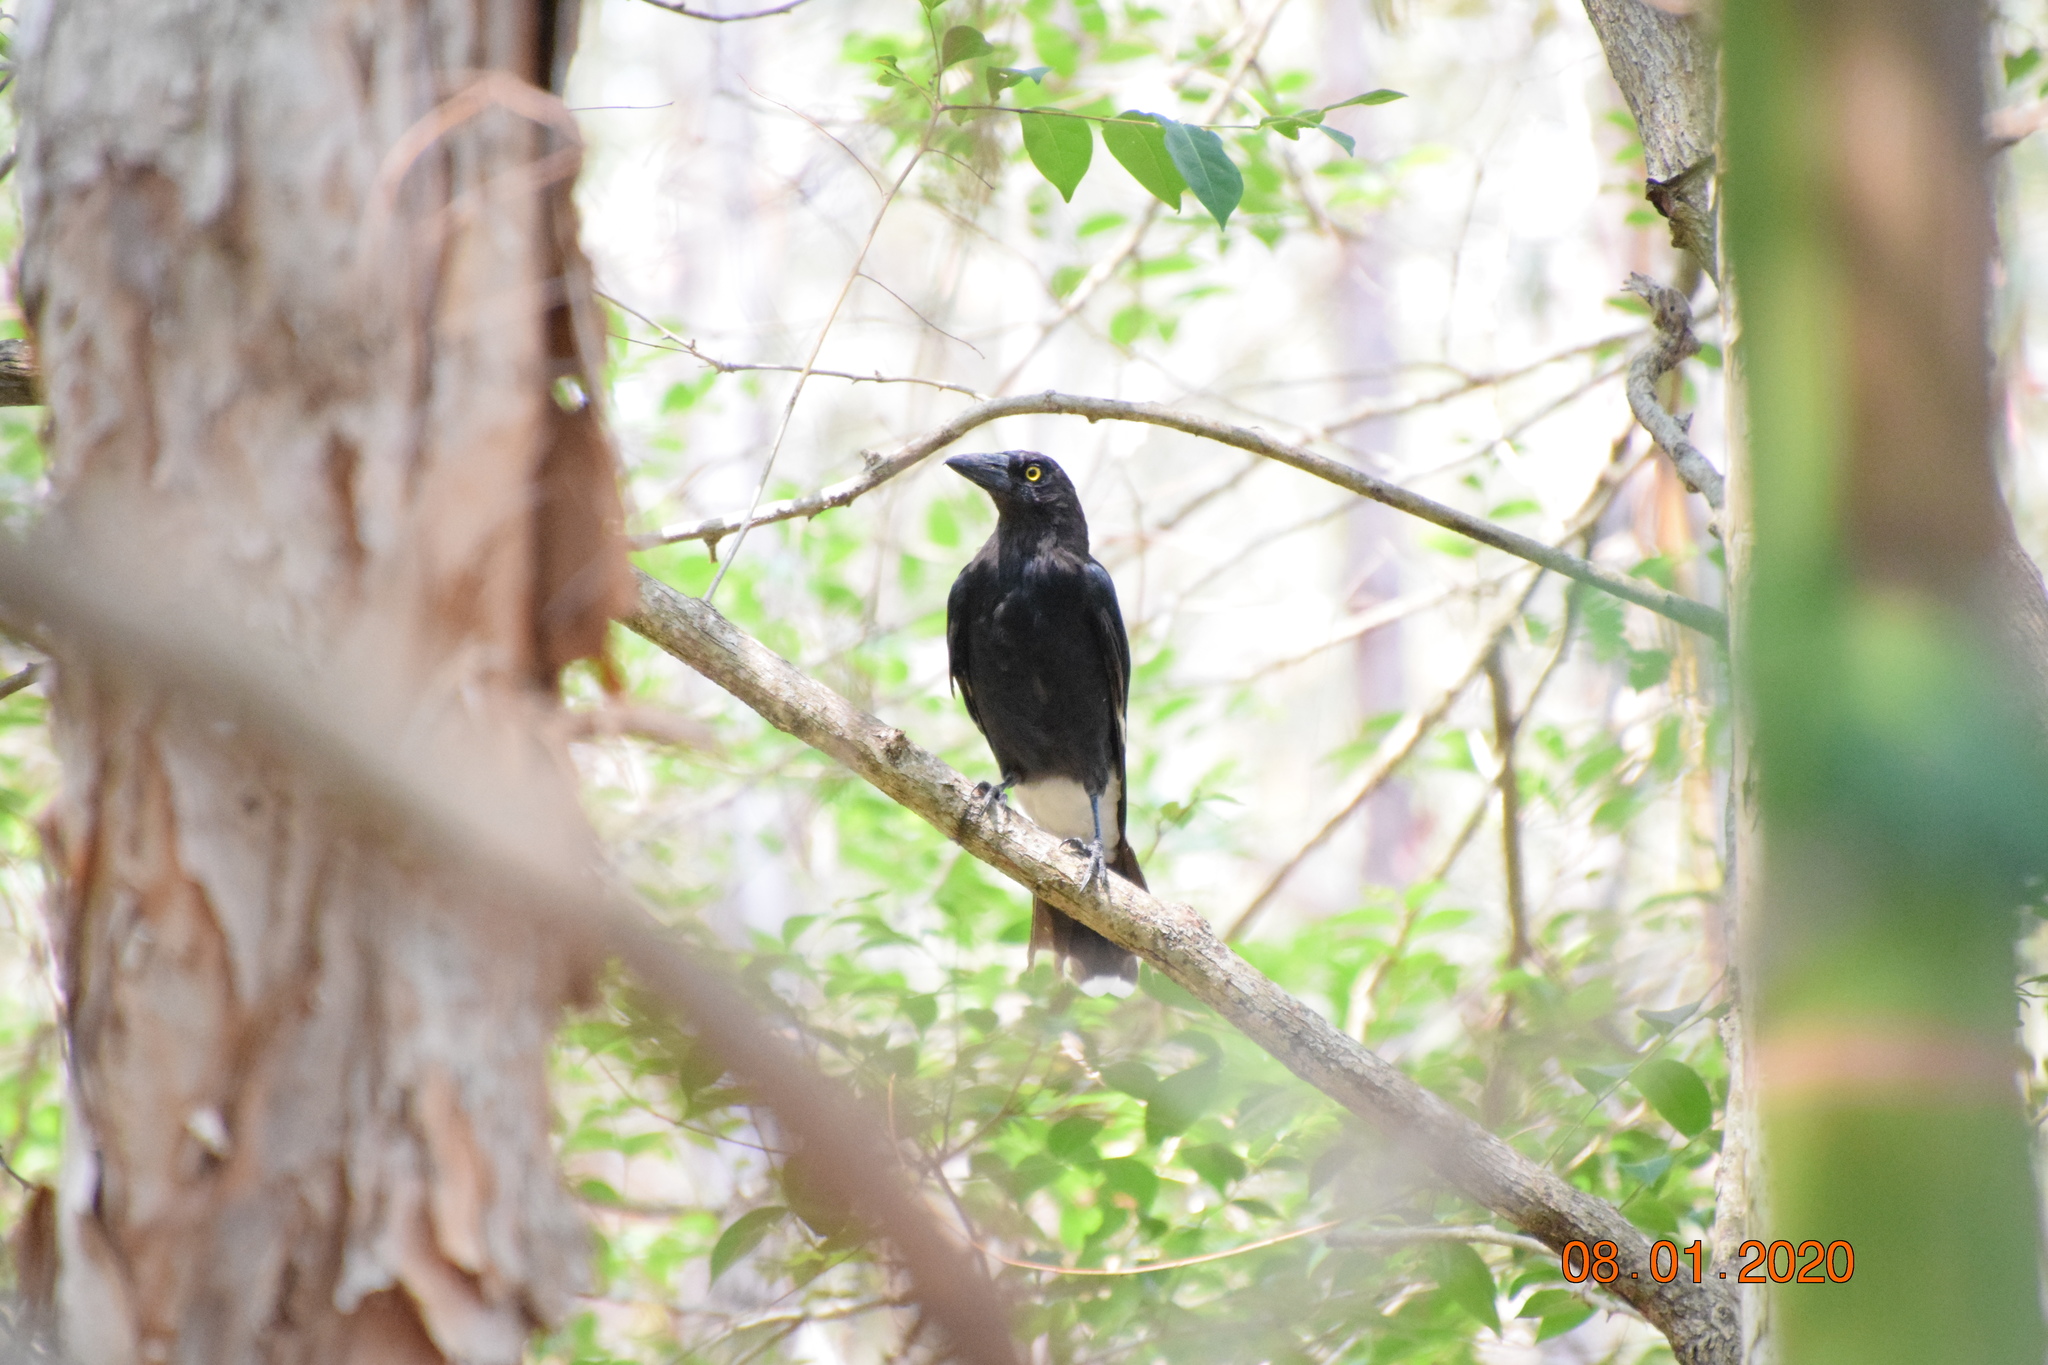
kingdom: Animalia
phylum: Chordata
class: Aves
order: Passeriformes
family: Cracticidae
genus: Strepera
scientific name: Strepera graculina
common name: Pied currawong
